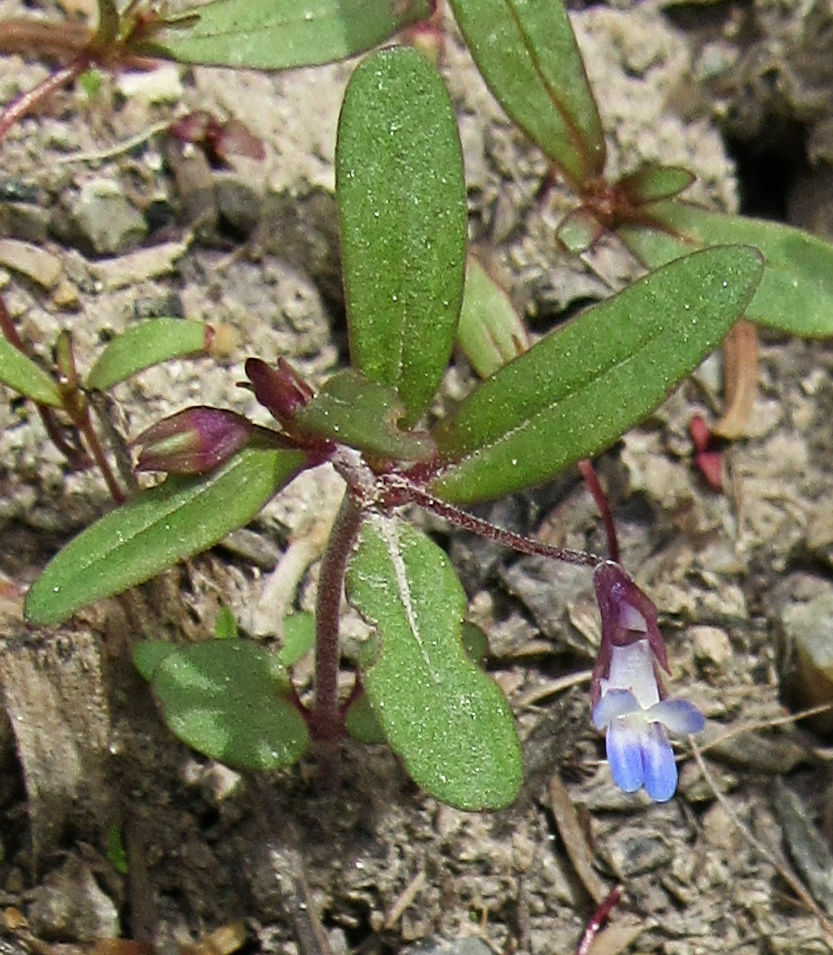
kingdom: Plantae
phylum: Tracheophyta
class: Magnoliopsida
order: Lamiales
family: Plantaginaceae
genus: Collinsia
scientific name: Collinsia parviflora
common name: Blue-lips
